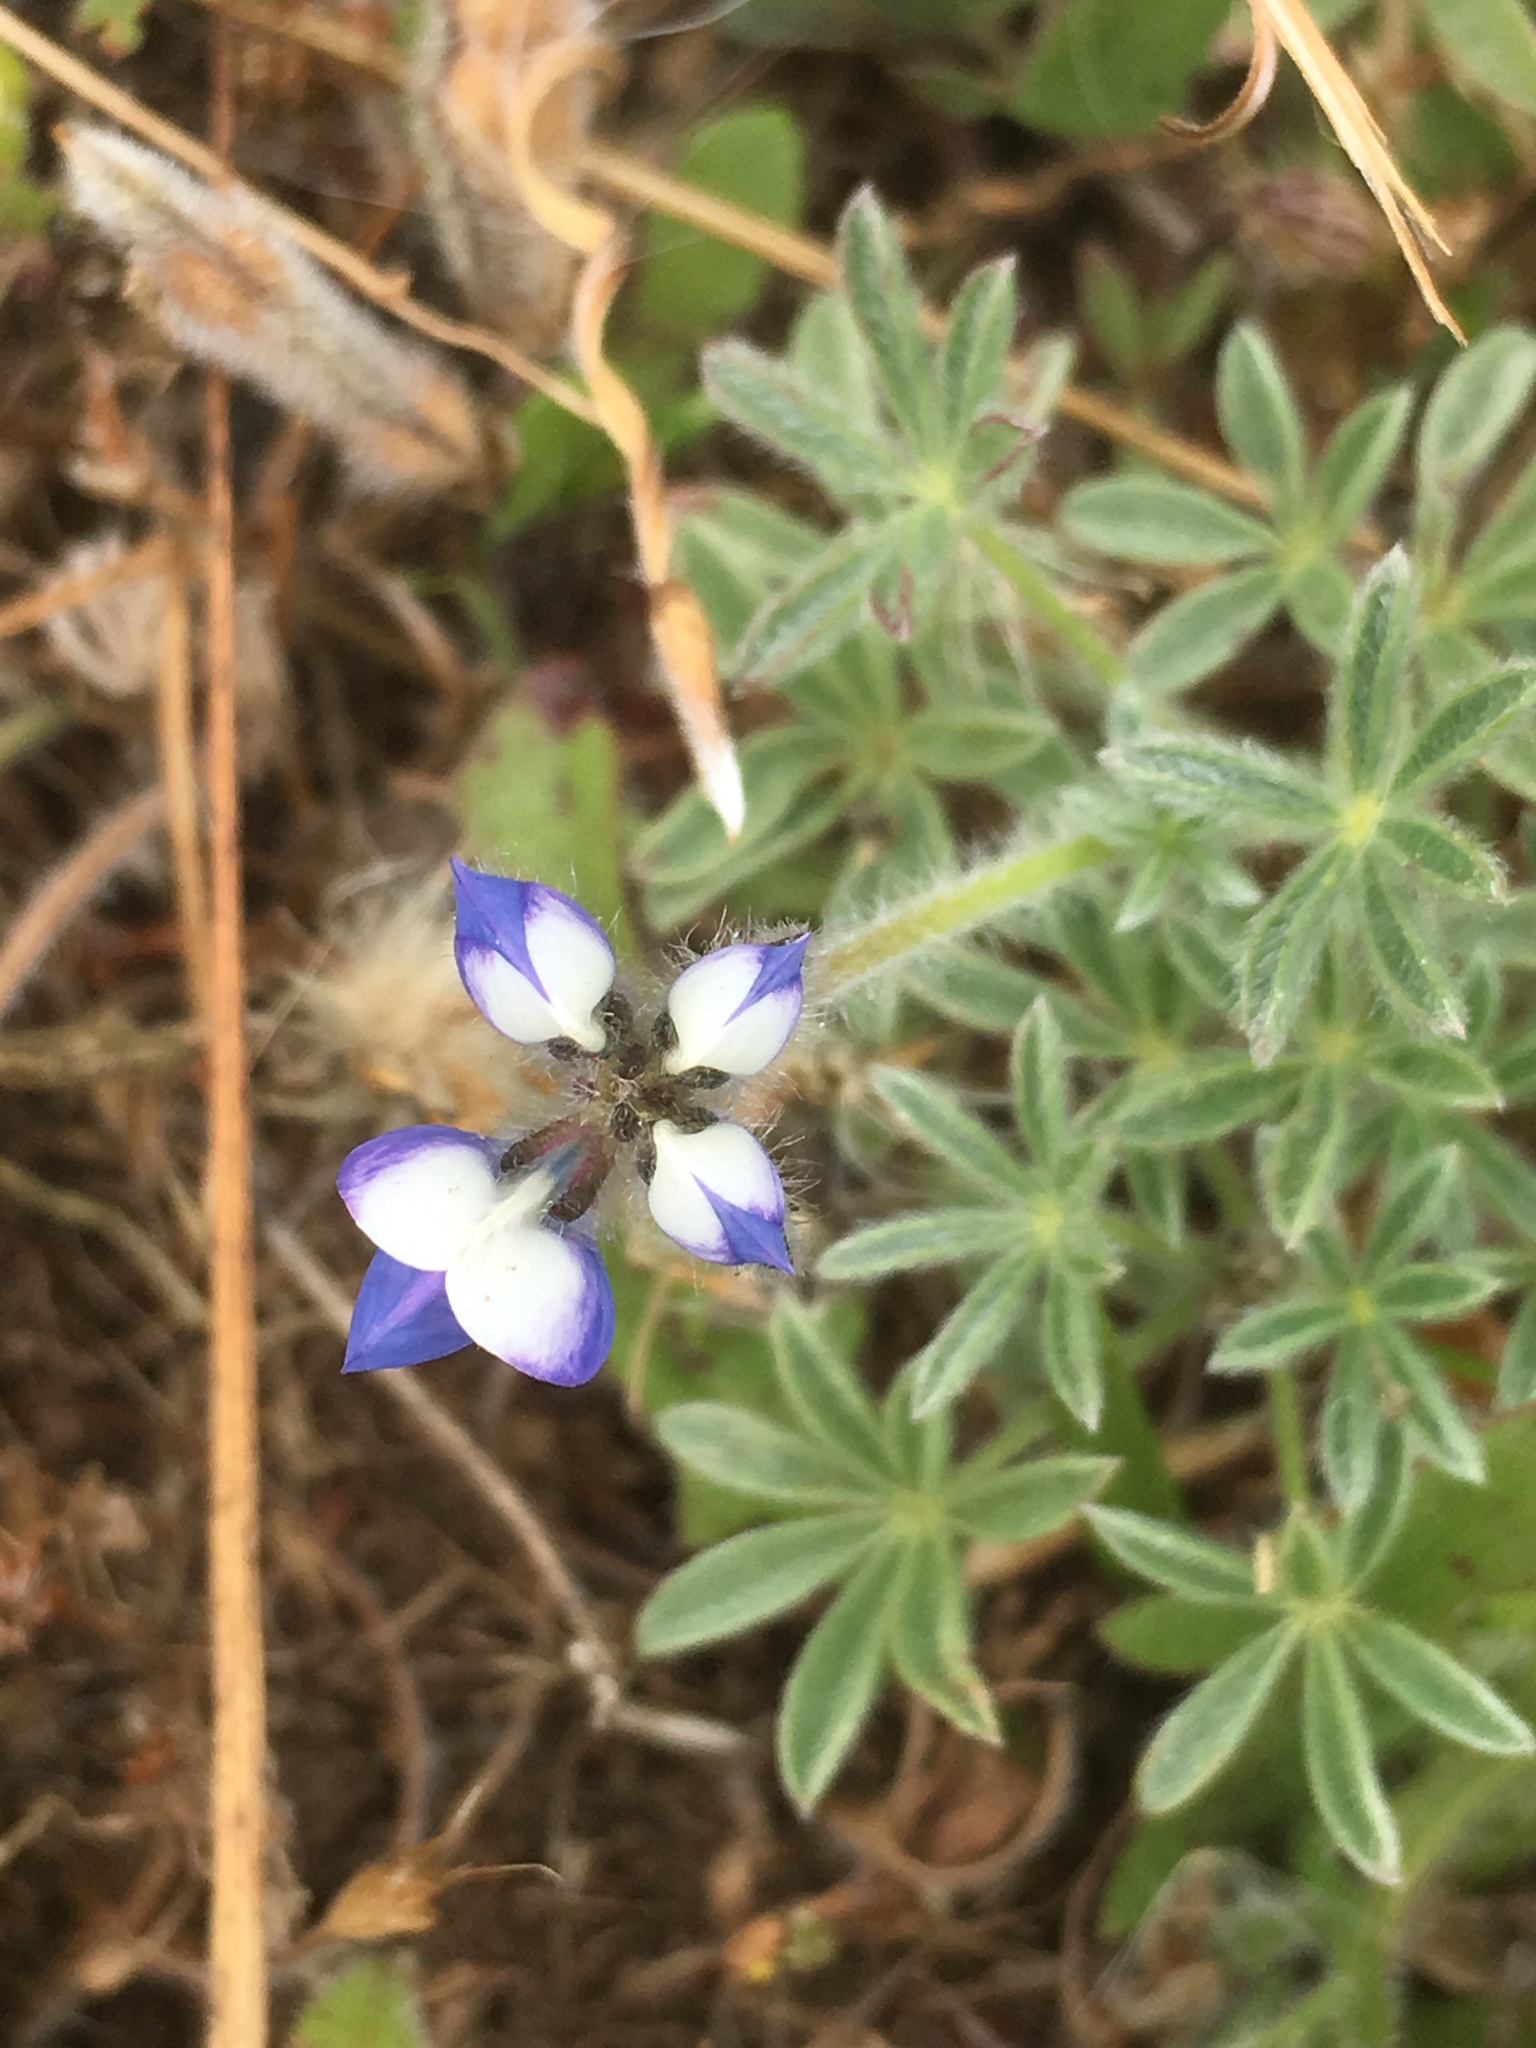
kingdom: Plantae
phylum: Tracheophyta
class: Magnoliopsida
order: Fabales
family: Fabaceae
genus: Lupinus
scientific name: Lupinus bicolor
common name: Miniature lupine
